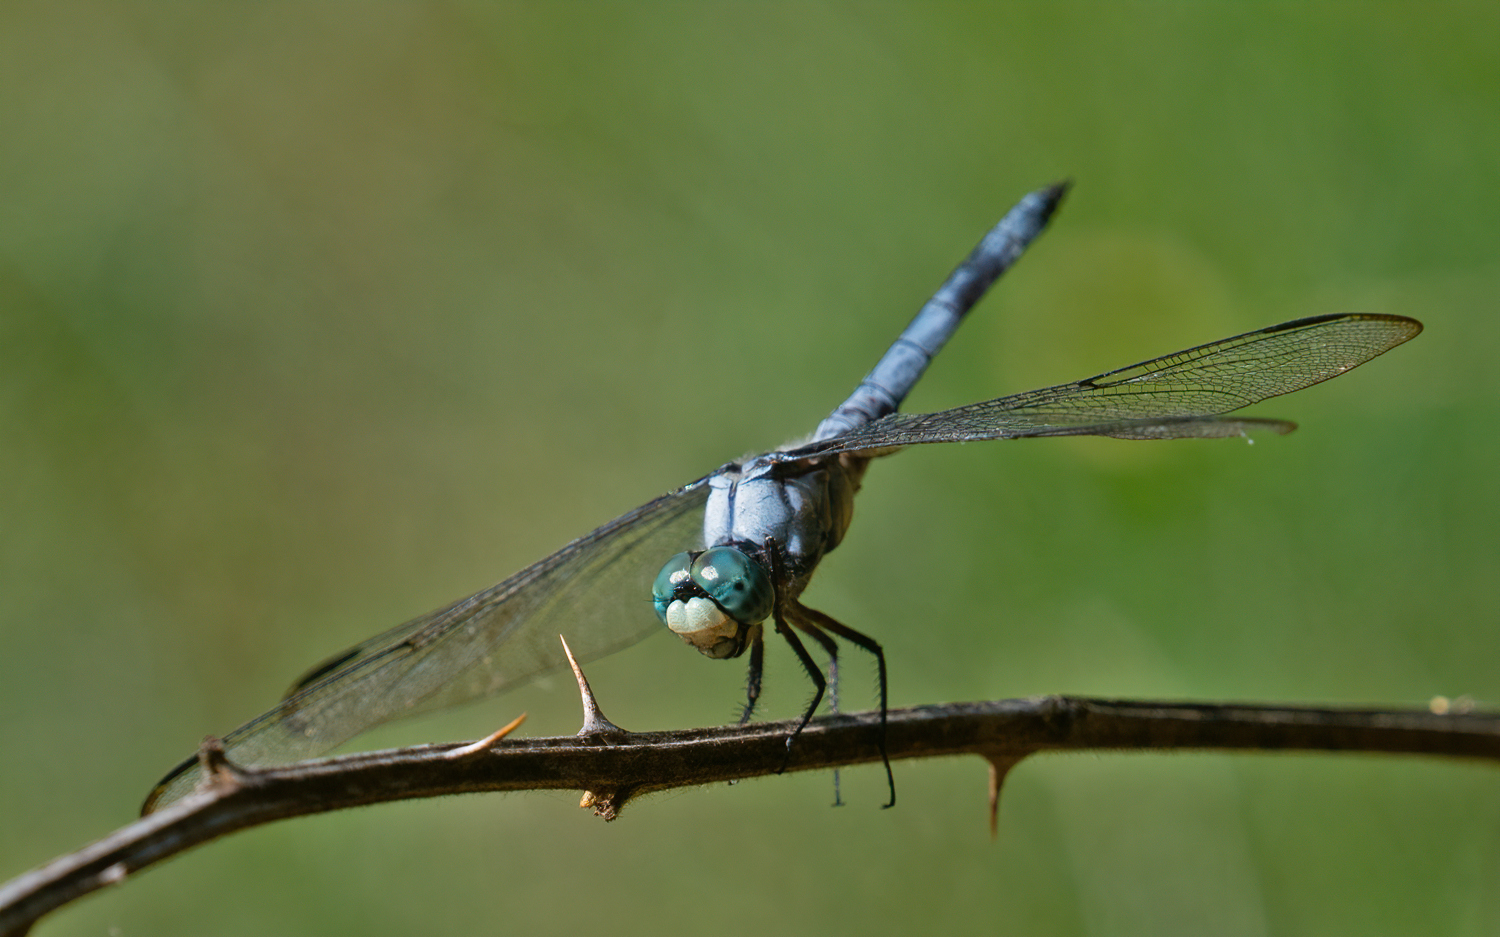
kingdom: Animalia
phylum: Arthropoda
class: Insecta
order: Odonata
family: Libellulidae
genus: Libellula
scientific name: Libellula vibrans
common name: Great blue skimmer
